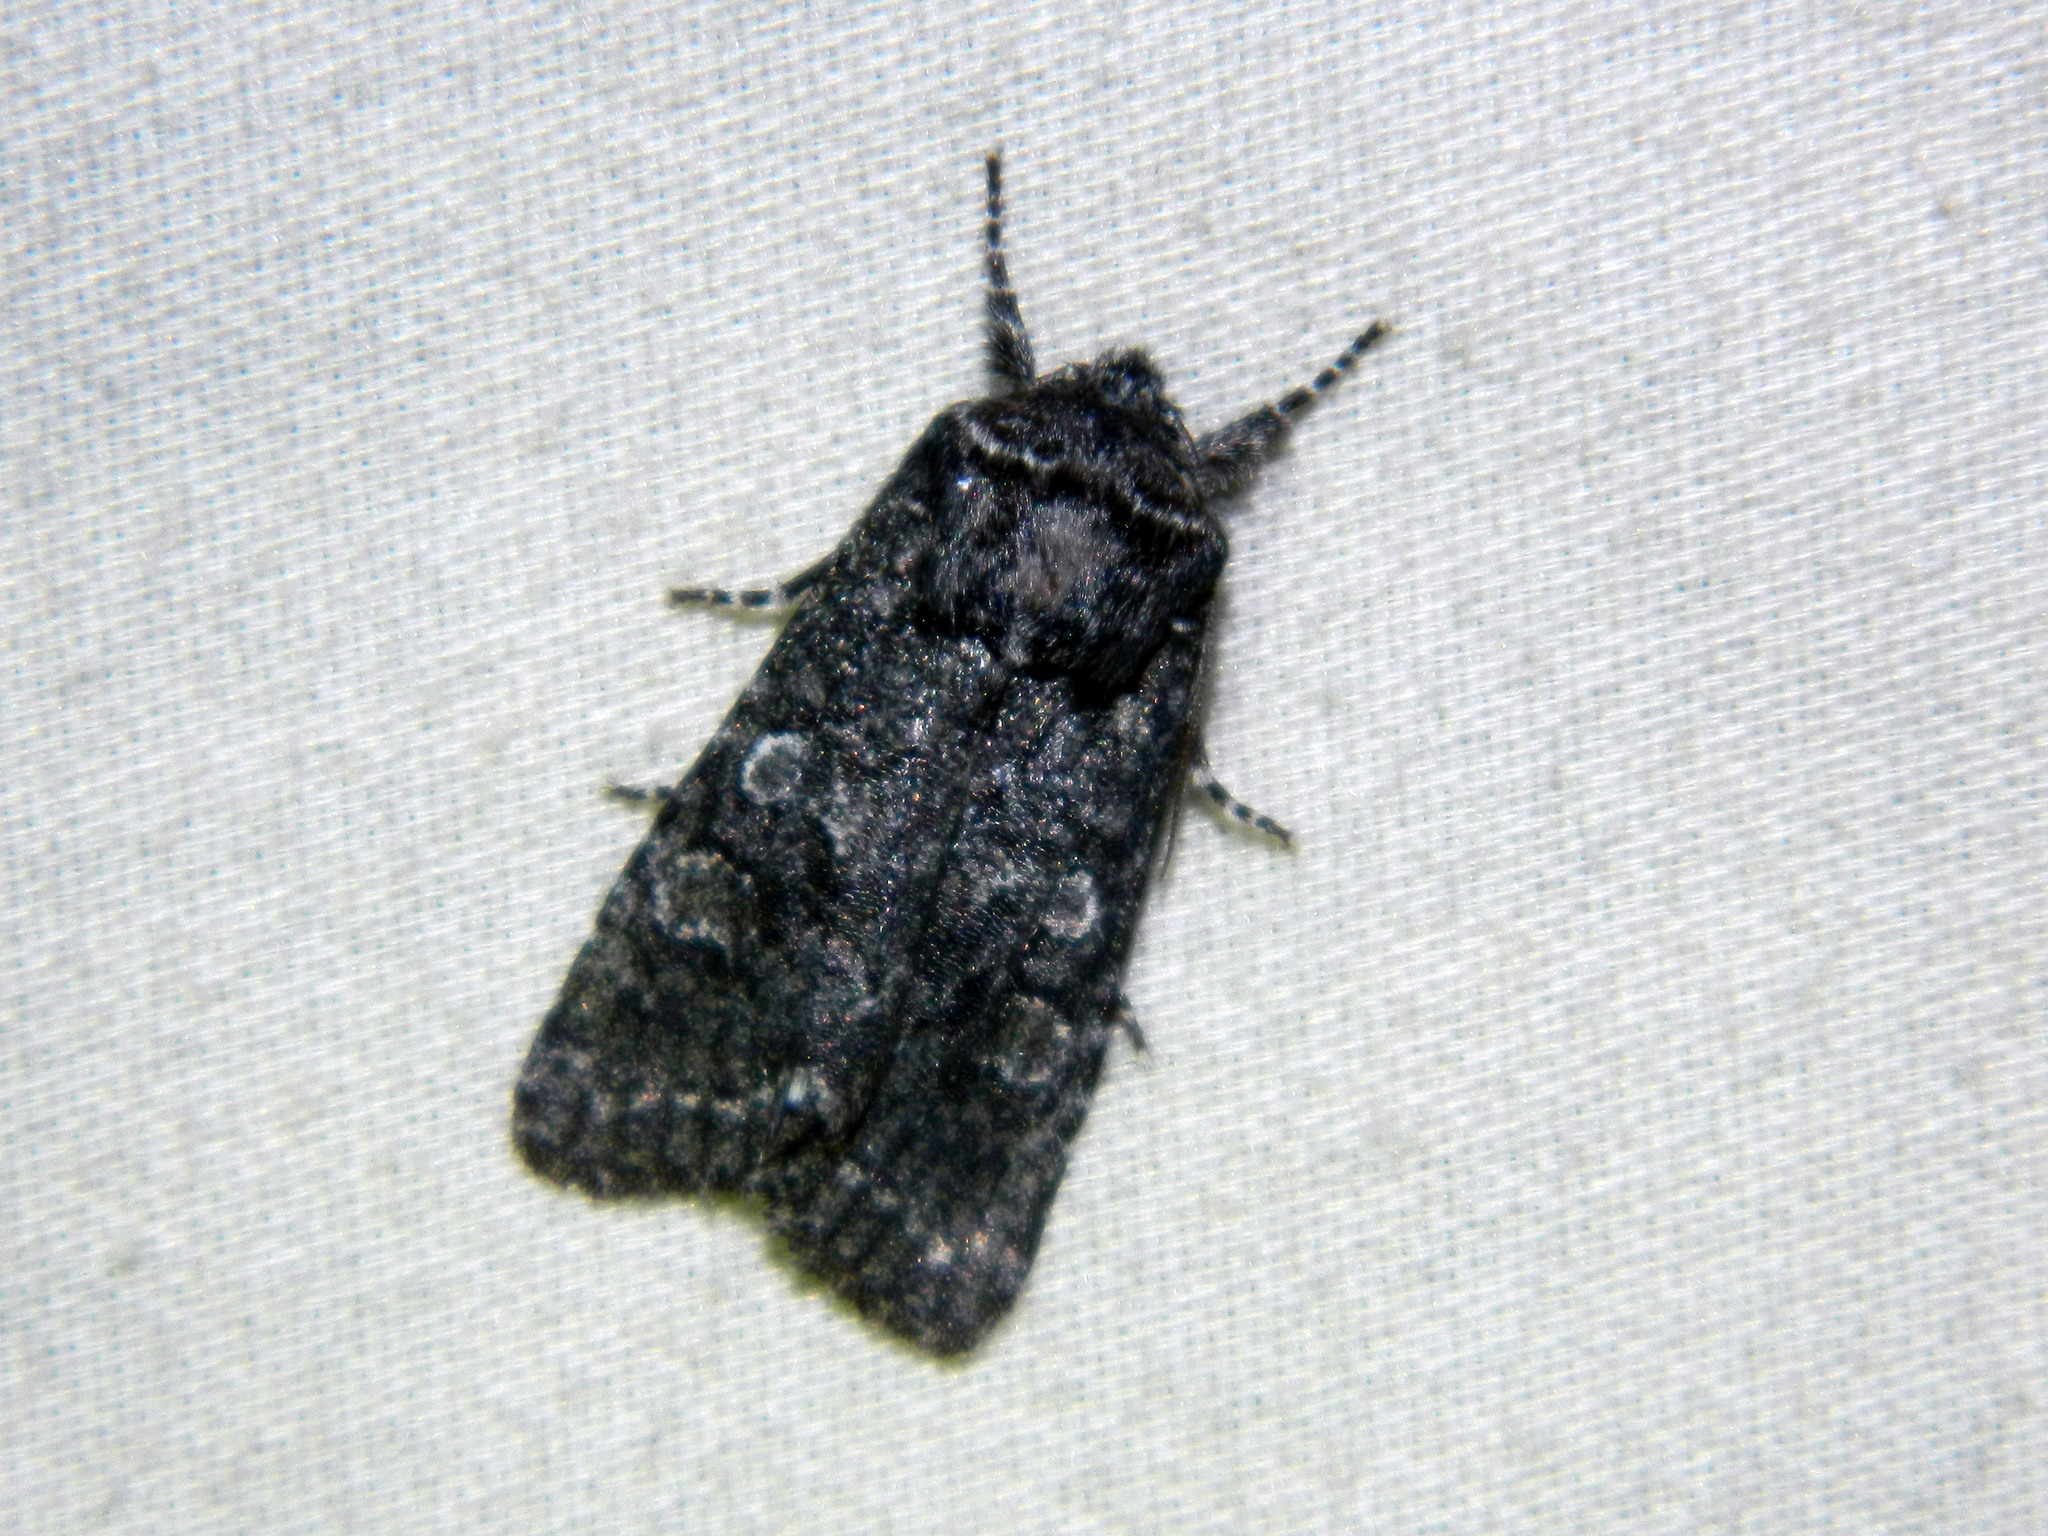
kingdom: Animalia
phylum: Arthropoda
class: Insecta
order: Lepidoptera
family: Noctuidae
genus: Egira
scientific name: Egira dolosa
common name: Lined black aspen cat.
